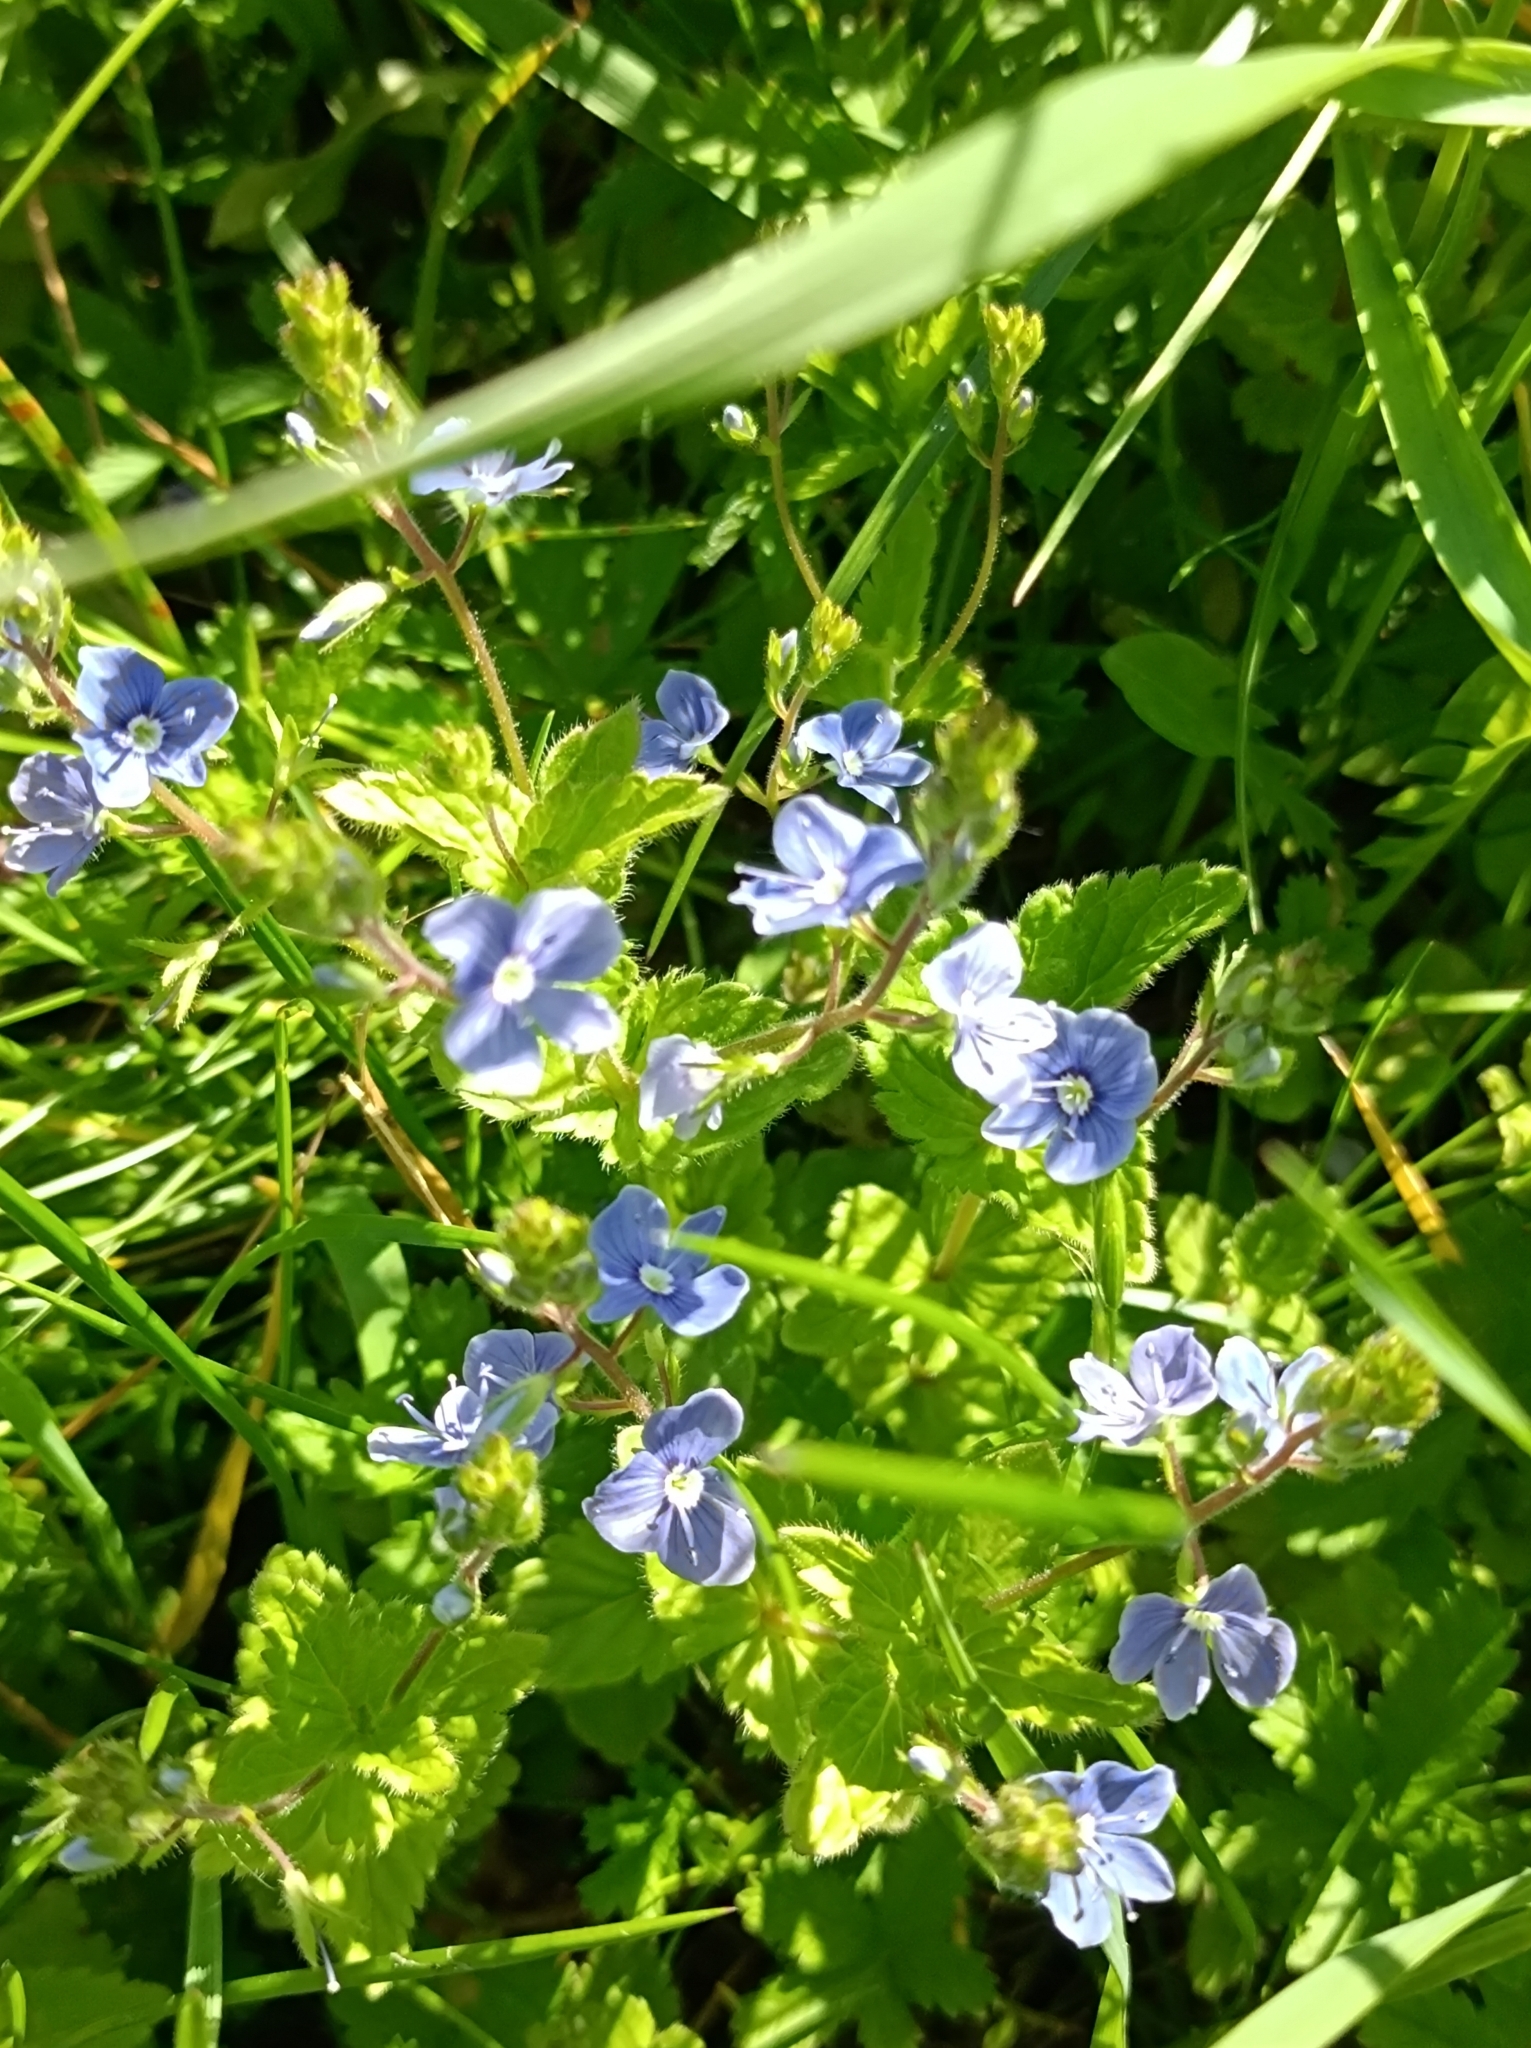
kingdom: Plantae
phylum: Tracheophyta
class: Magnoliopsida
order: Lamiales
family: Plantaginaceae
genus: Veronica
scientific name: Veronica chamaedrys
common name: Germander speedwell
